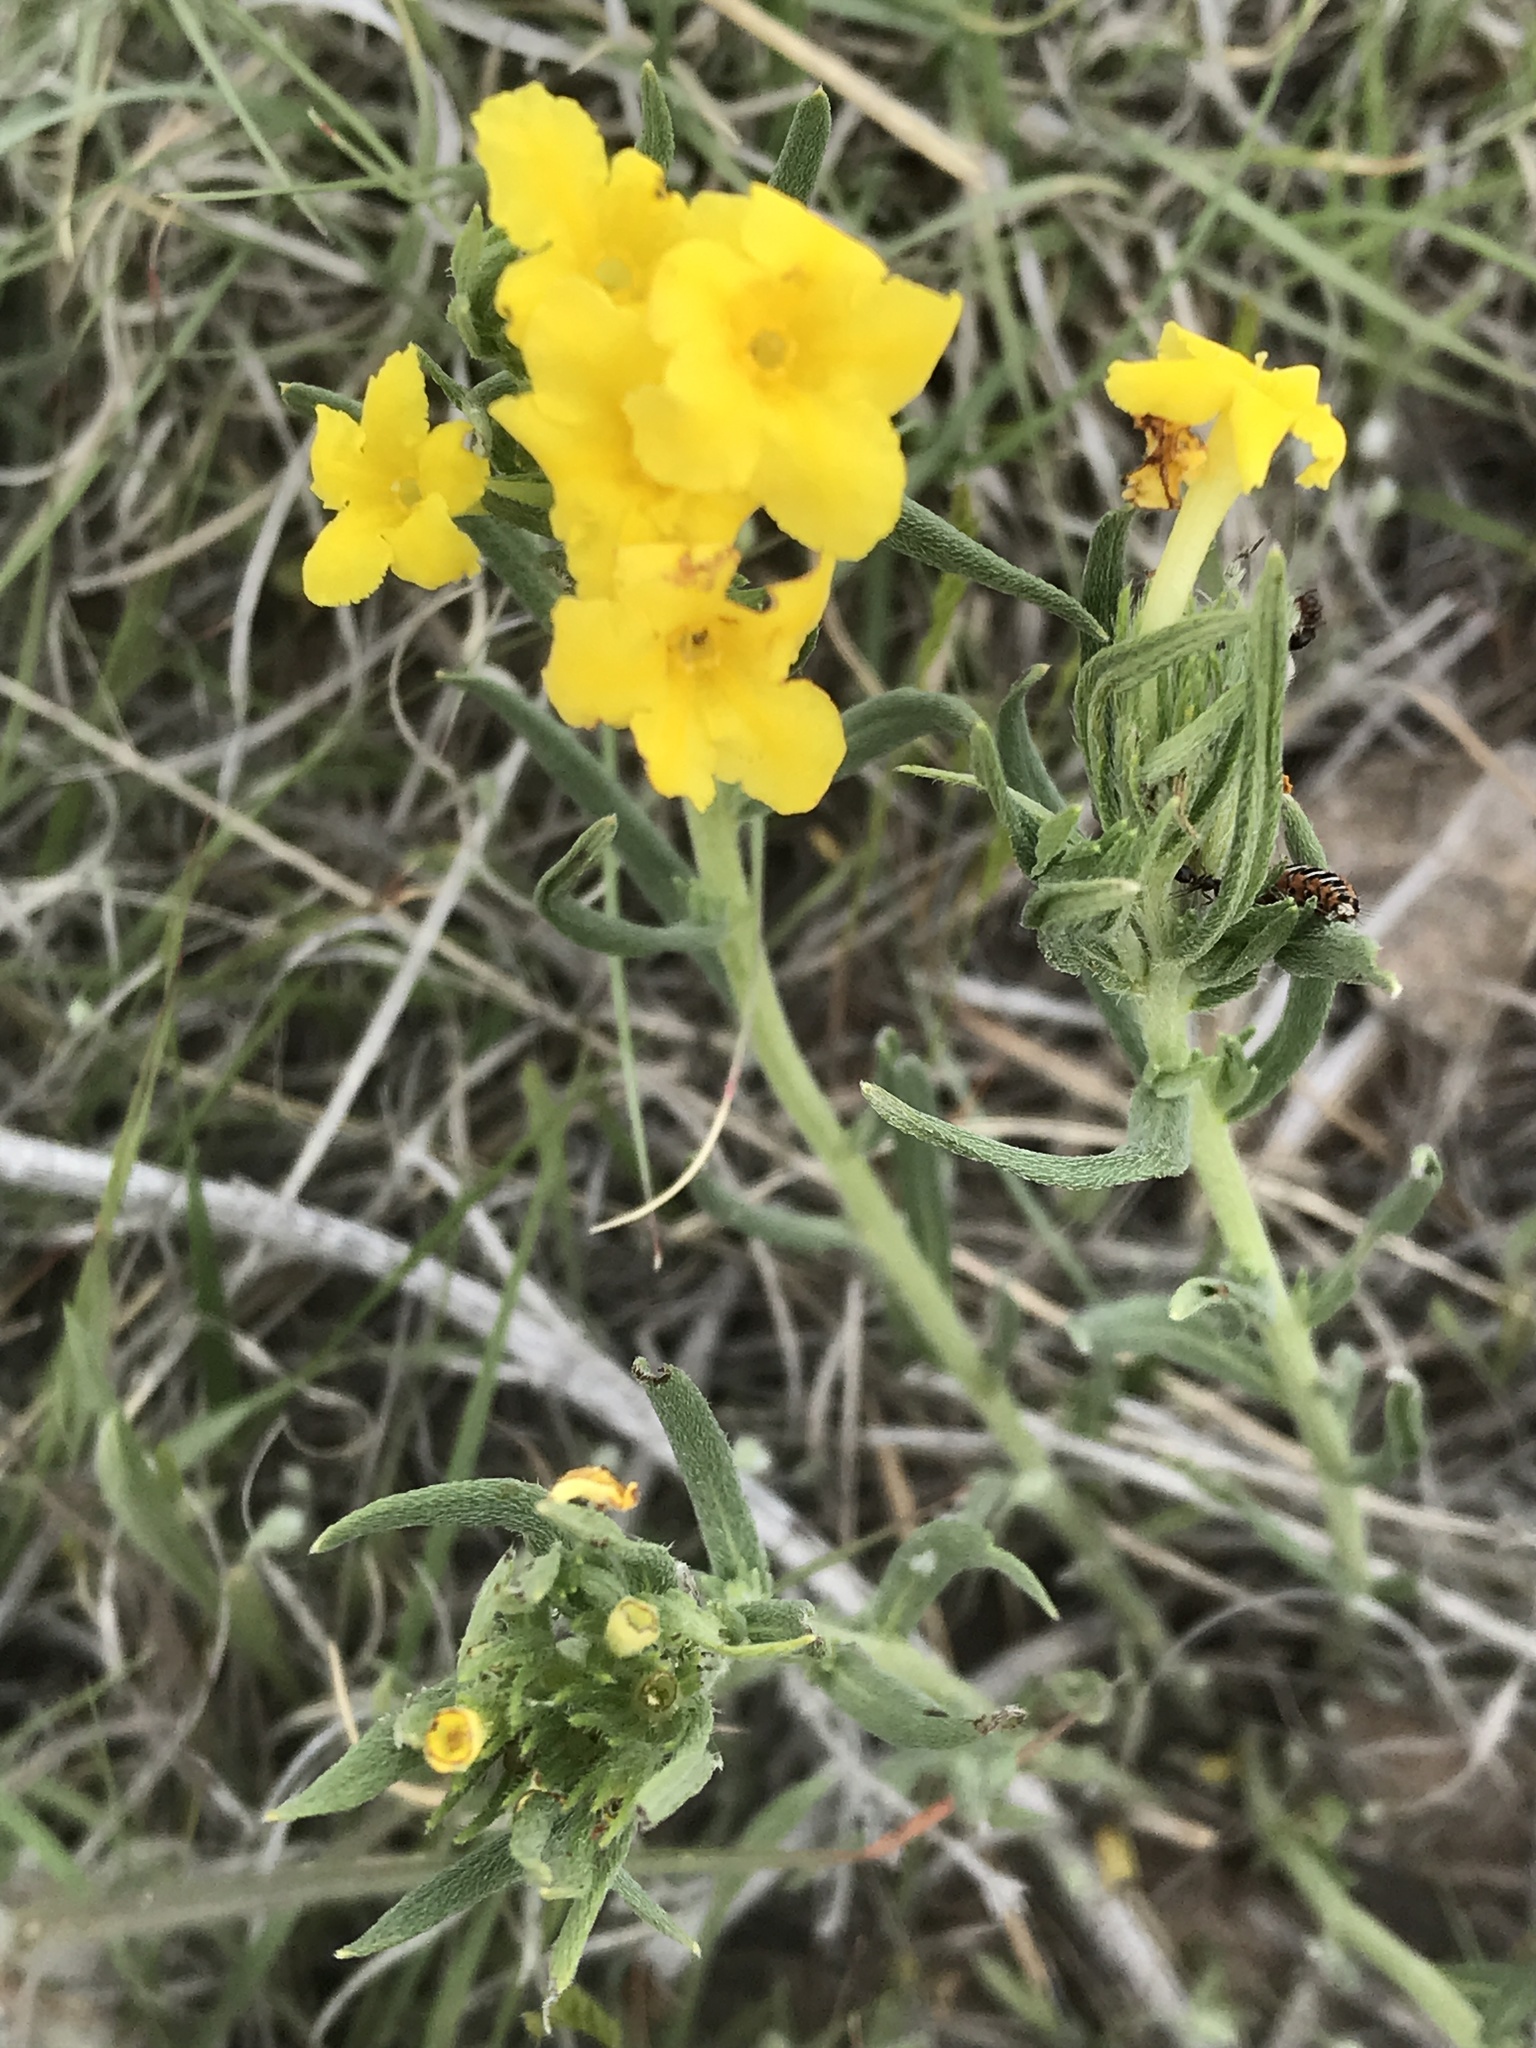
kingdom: Plantae
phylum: Tracheophyta
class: Magnoliopsida
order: Boraginales
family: Boraginaceae
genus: Lithospermum
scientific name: Lithospermum incisum
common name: Fringed gromwell
